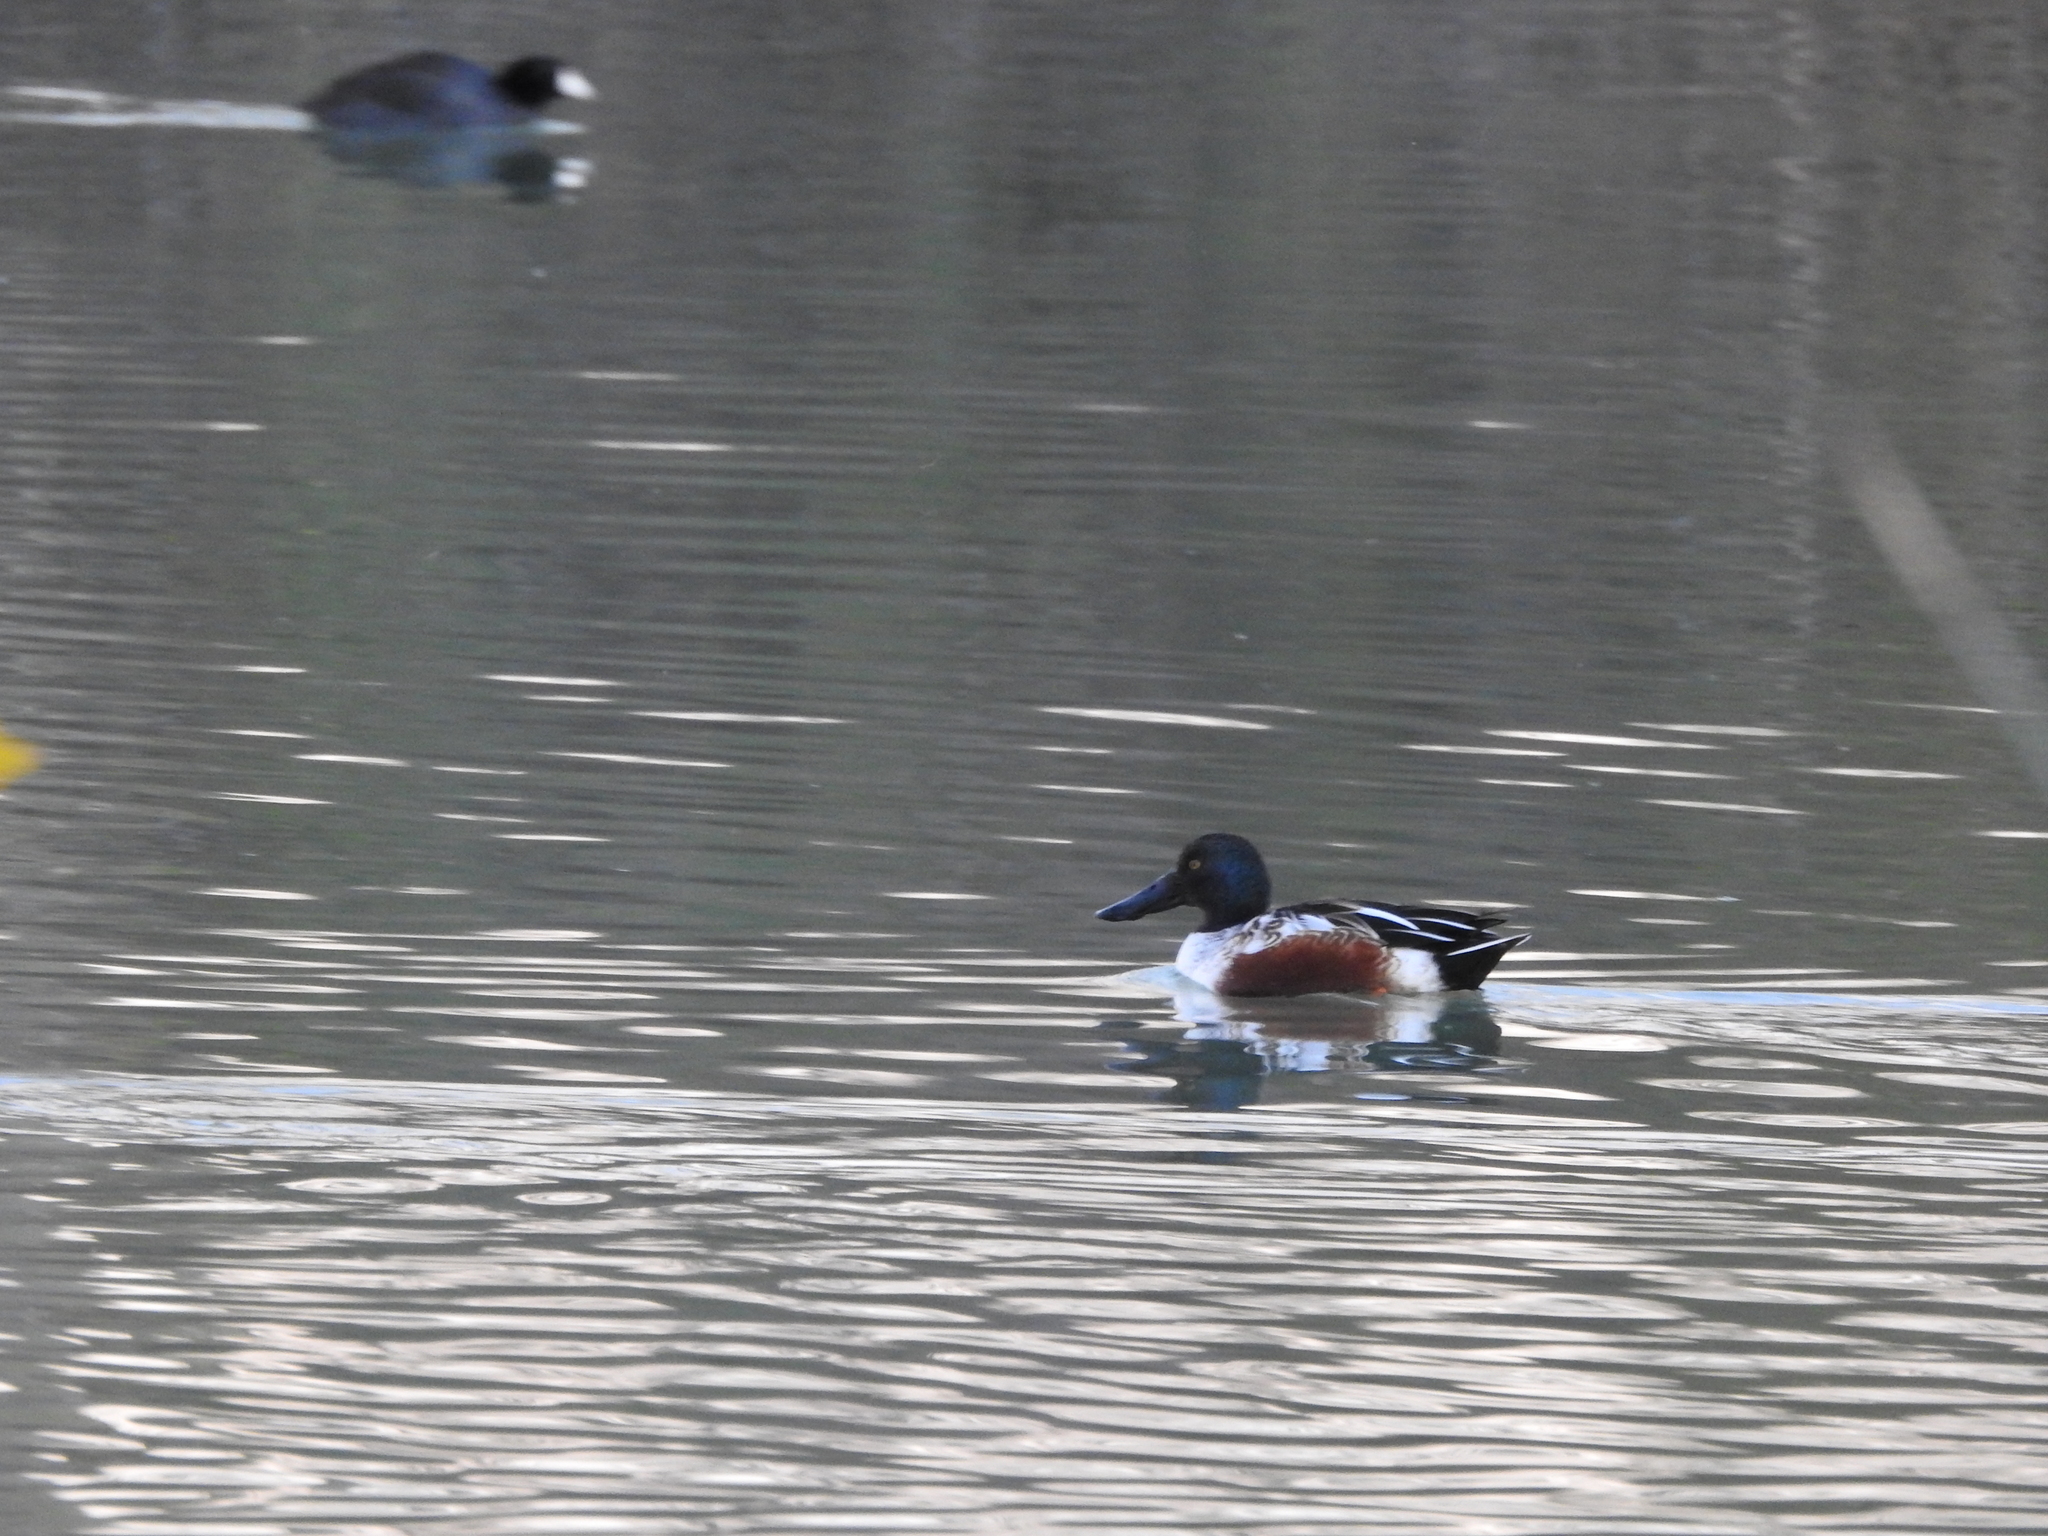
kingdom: Animalia
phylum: Chordata
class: Aves
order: Anseriformes
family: Anatidae
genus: Spatula
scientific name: Spatula clypeata
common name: Northern shoveler
